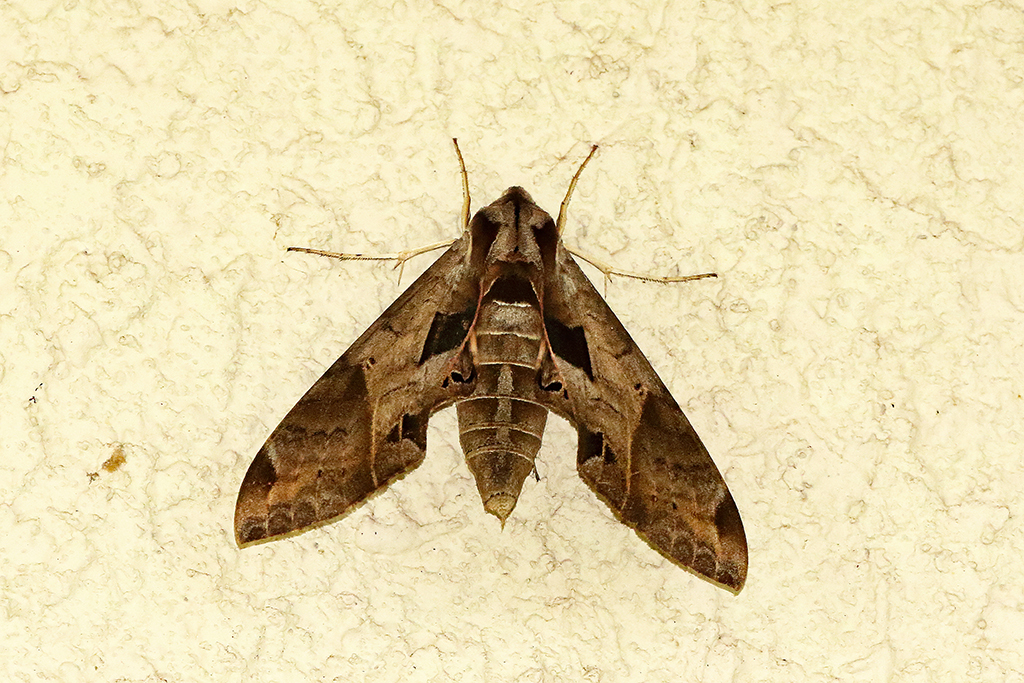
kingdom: Animalia
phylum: Arthropoda
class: Insecta
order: Lepidoptera
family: Sphingidae
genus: Eumorpha
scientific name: Eumorpha satellitia
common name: Satellite sphinx
